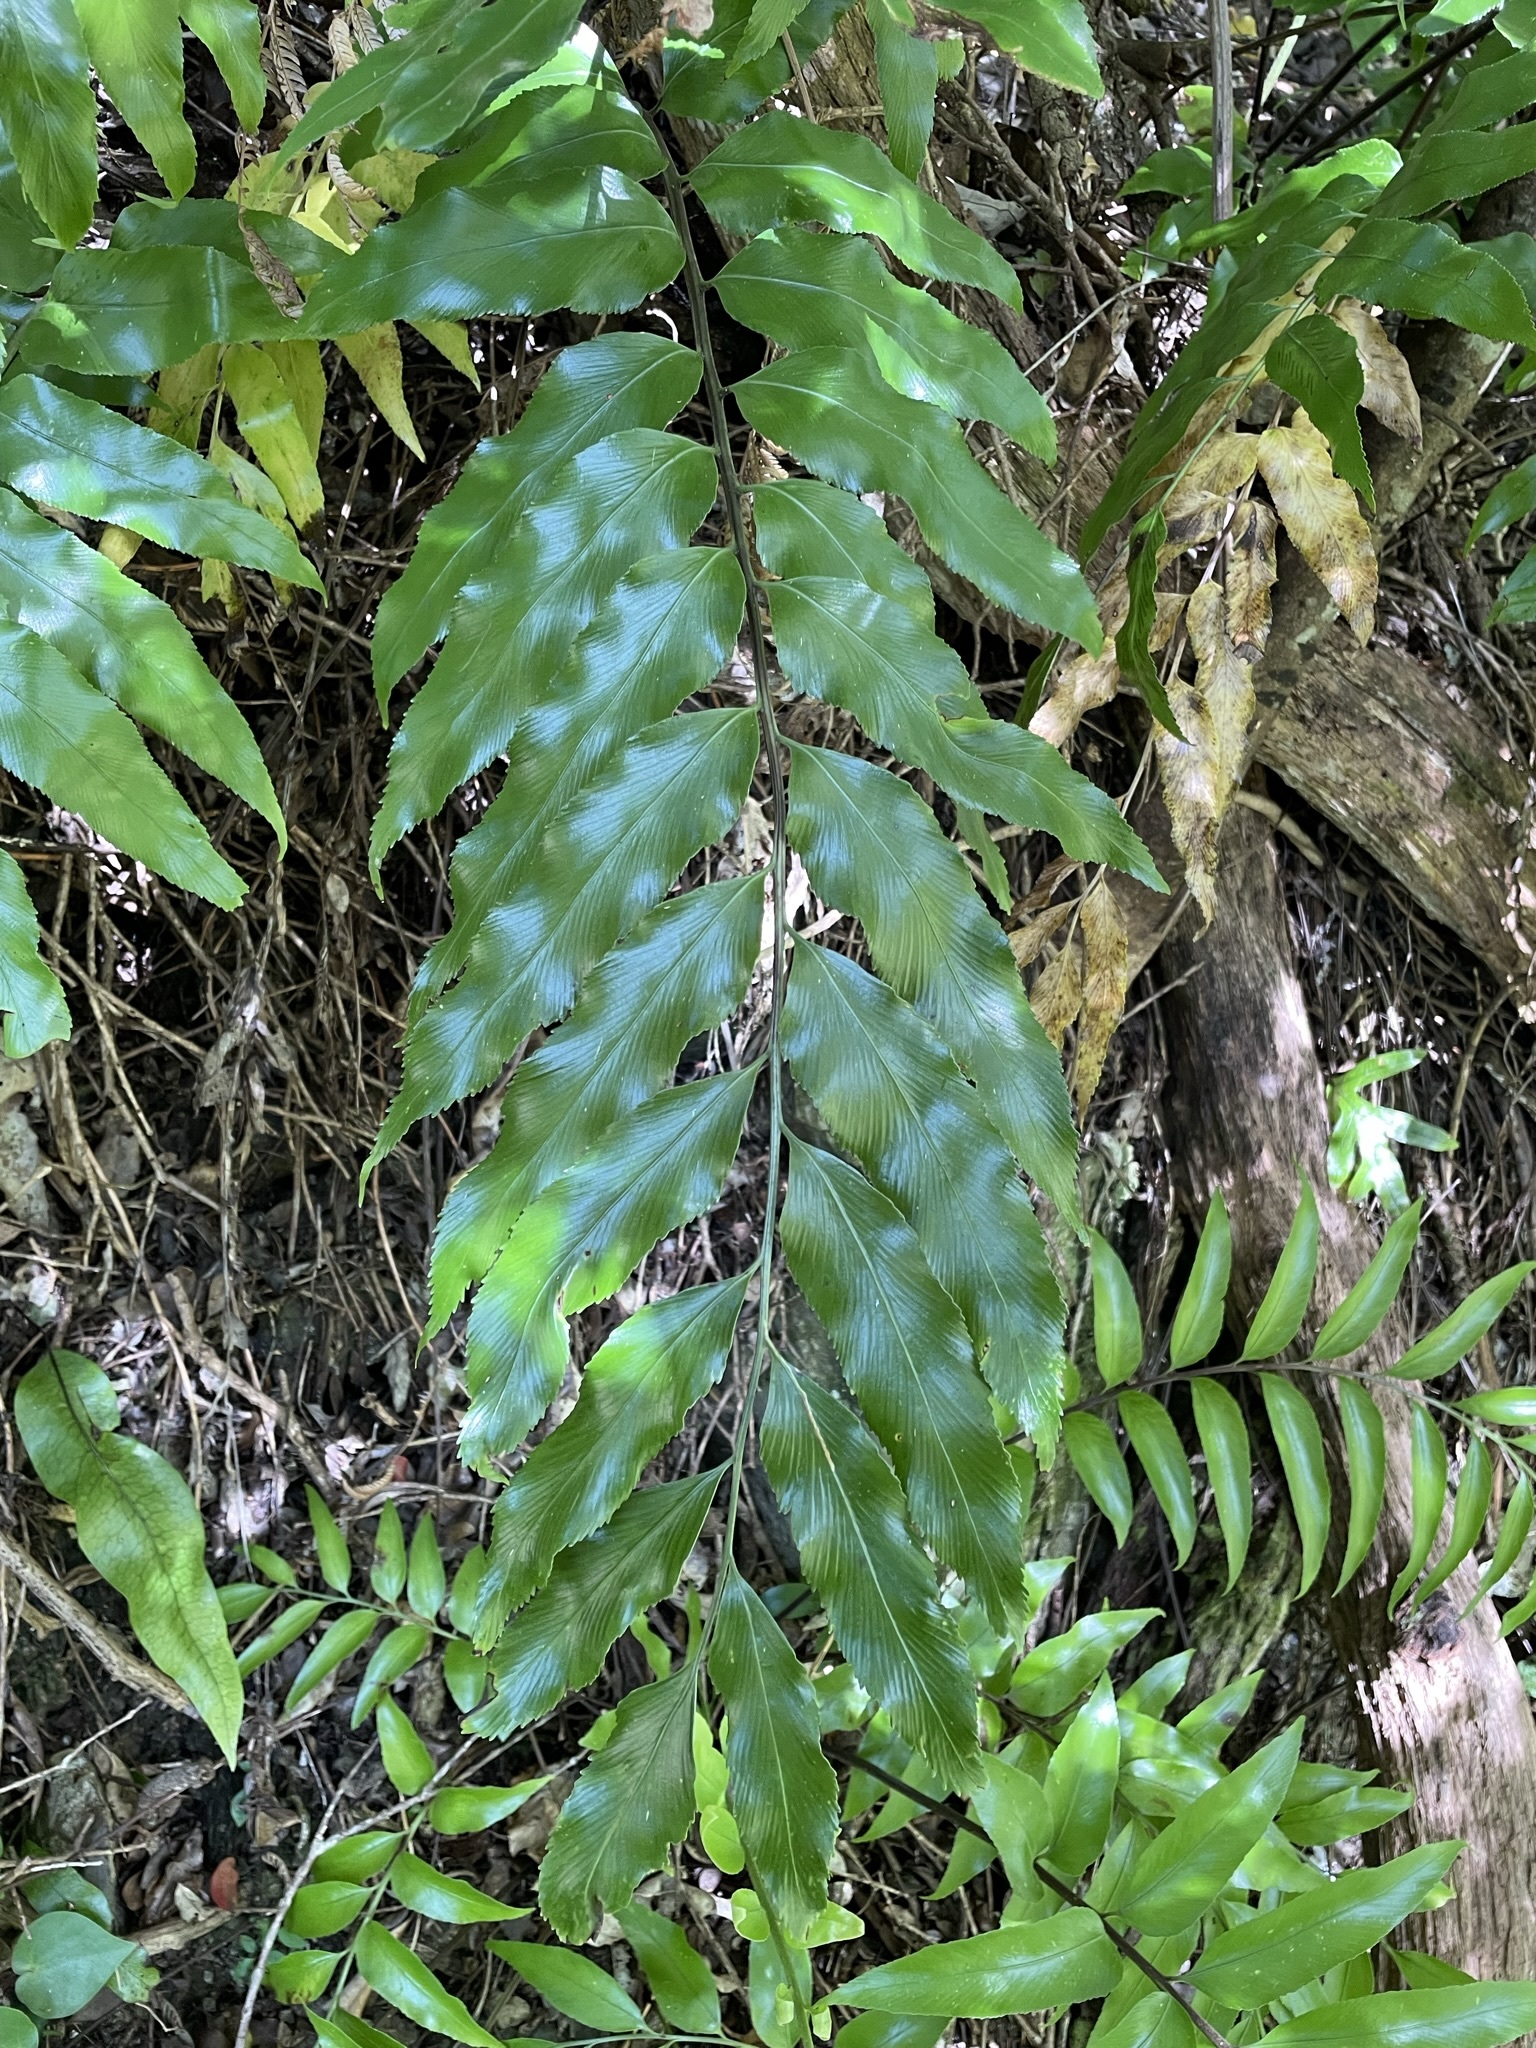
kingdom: Plantae
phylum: Tracheophyta
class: Polypodiopsida
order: Polypodiales
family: Aspleniaceae
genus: Asplenium
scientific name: Asplenium oblongifolium
